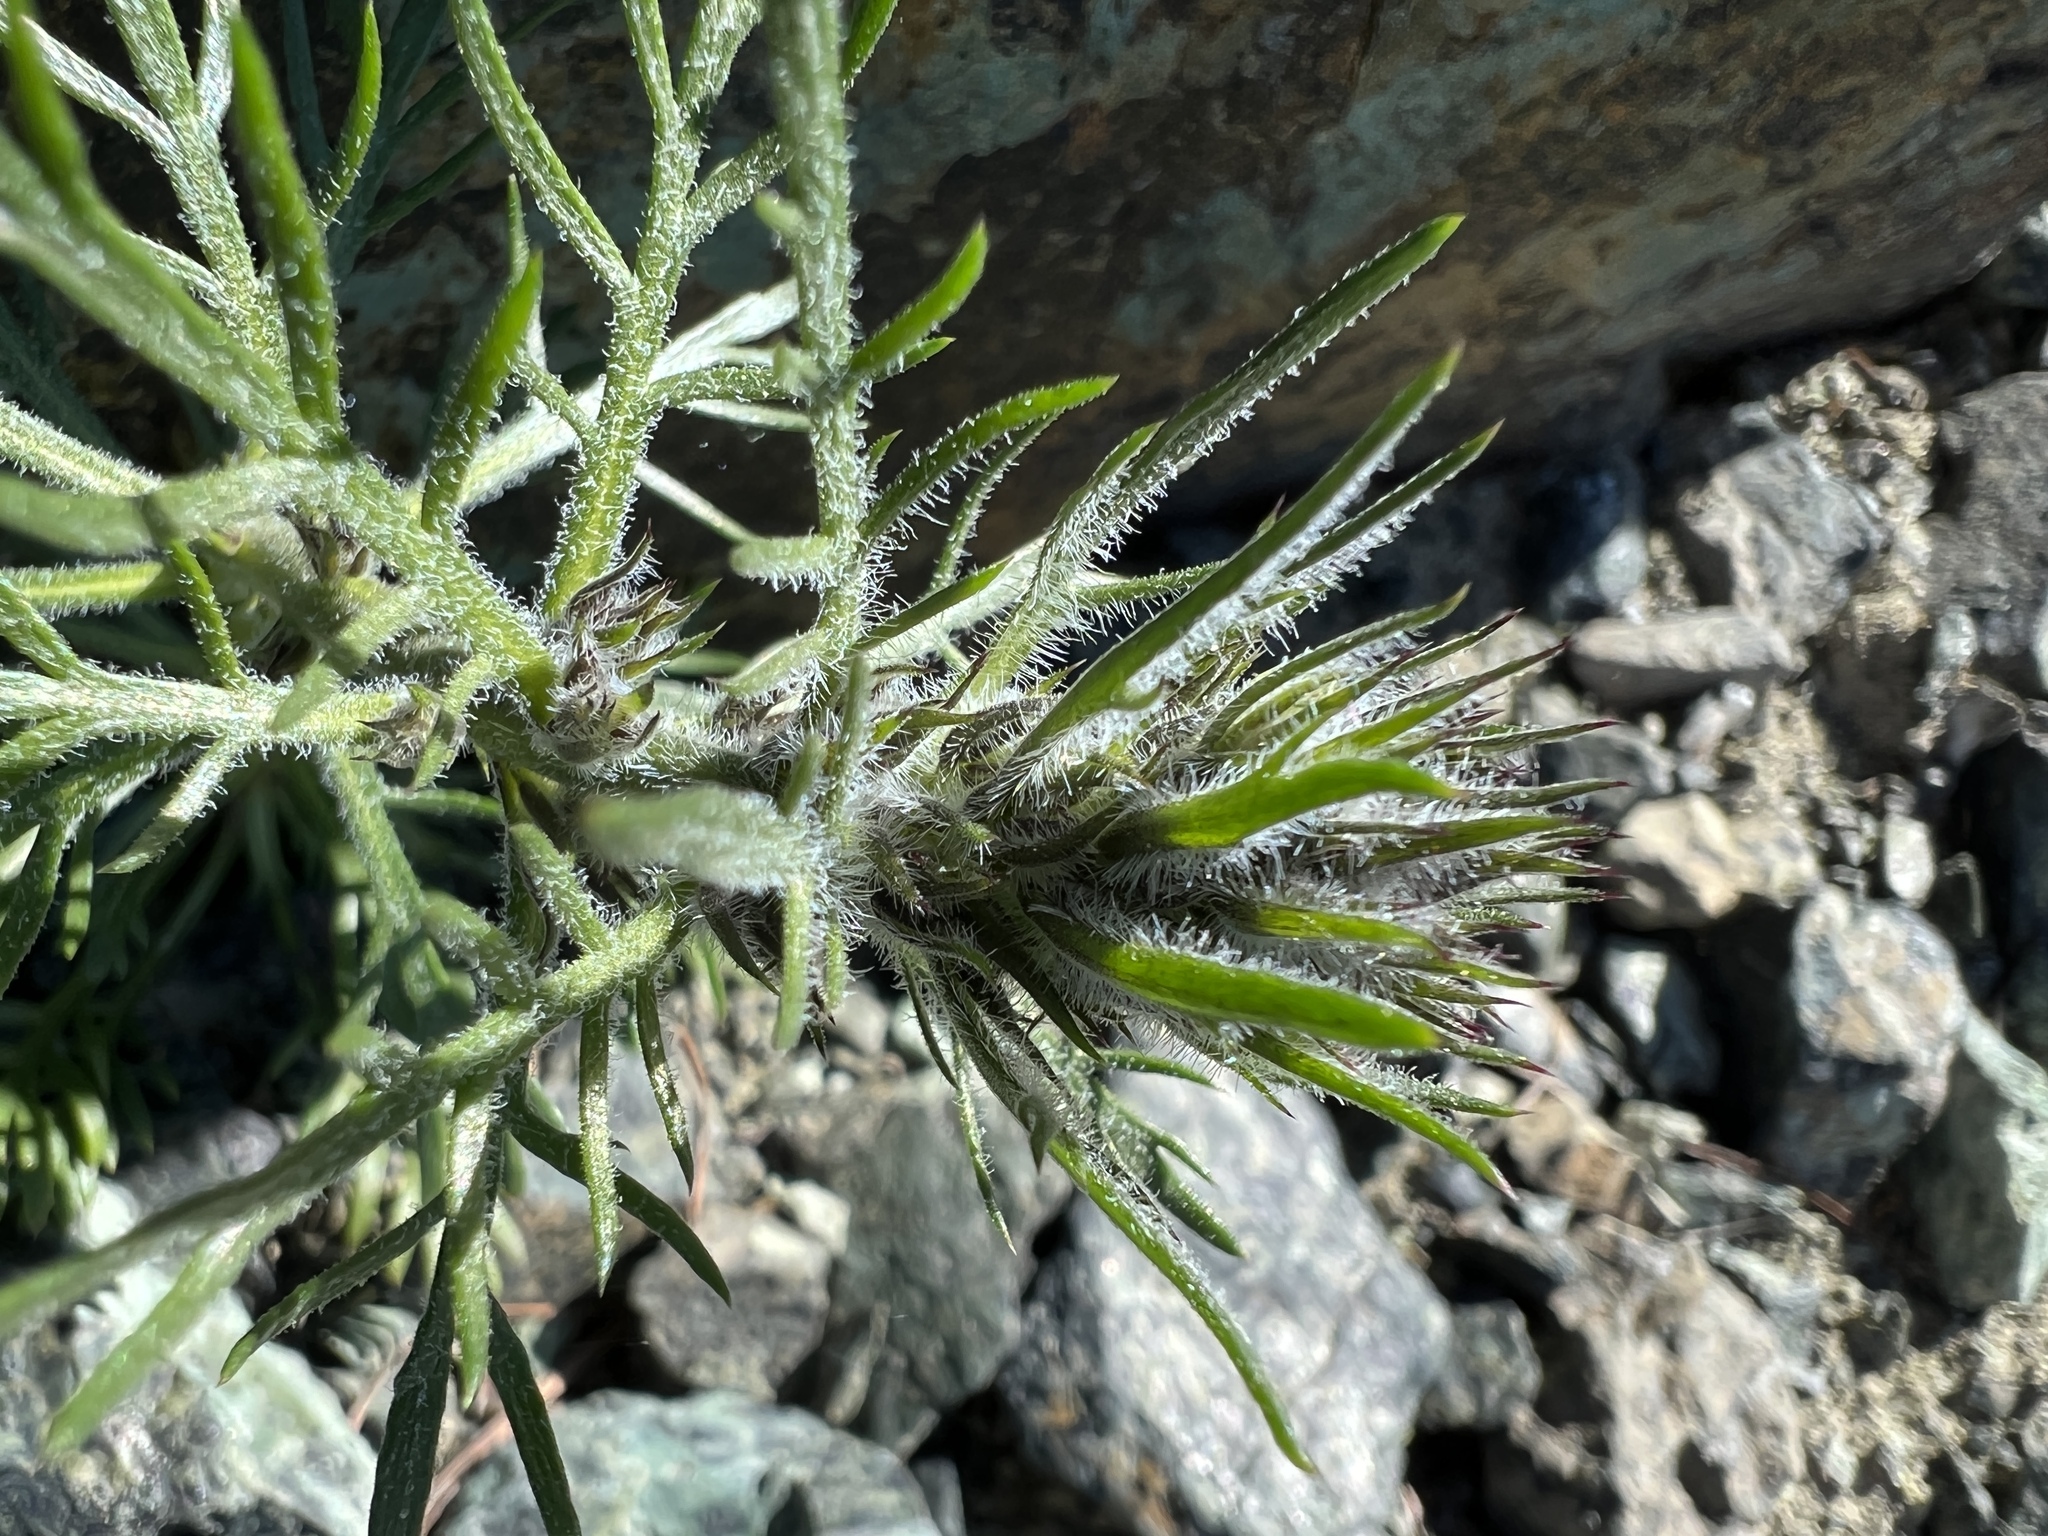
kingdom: Plantae
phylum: Tracheophyta
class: Magnoliopsida
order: Ericales
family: Polemoniaceae
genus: Ipomopsis
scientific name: Ipomopsis aggregata
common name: Scarlet gilia
